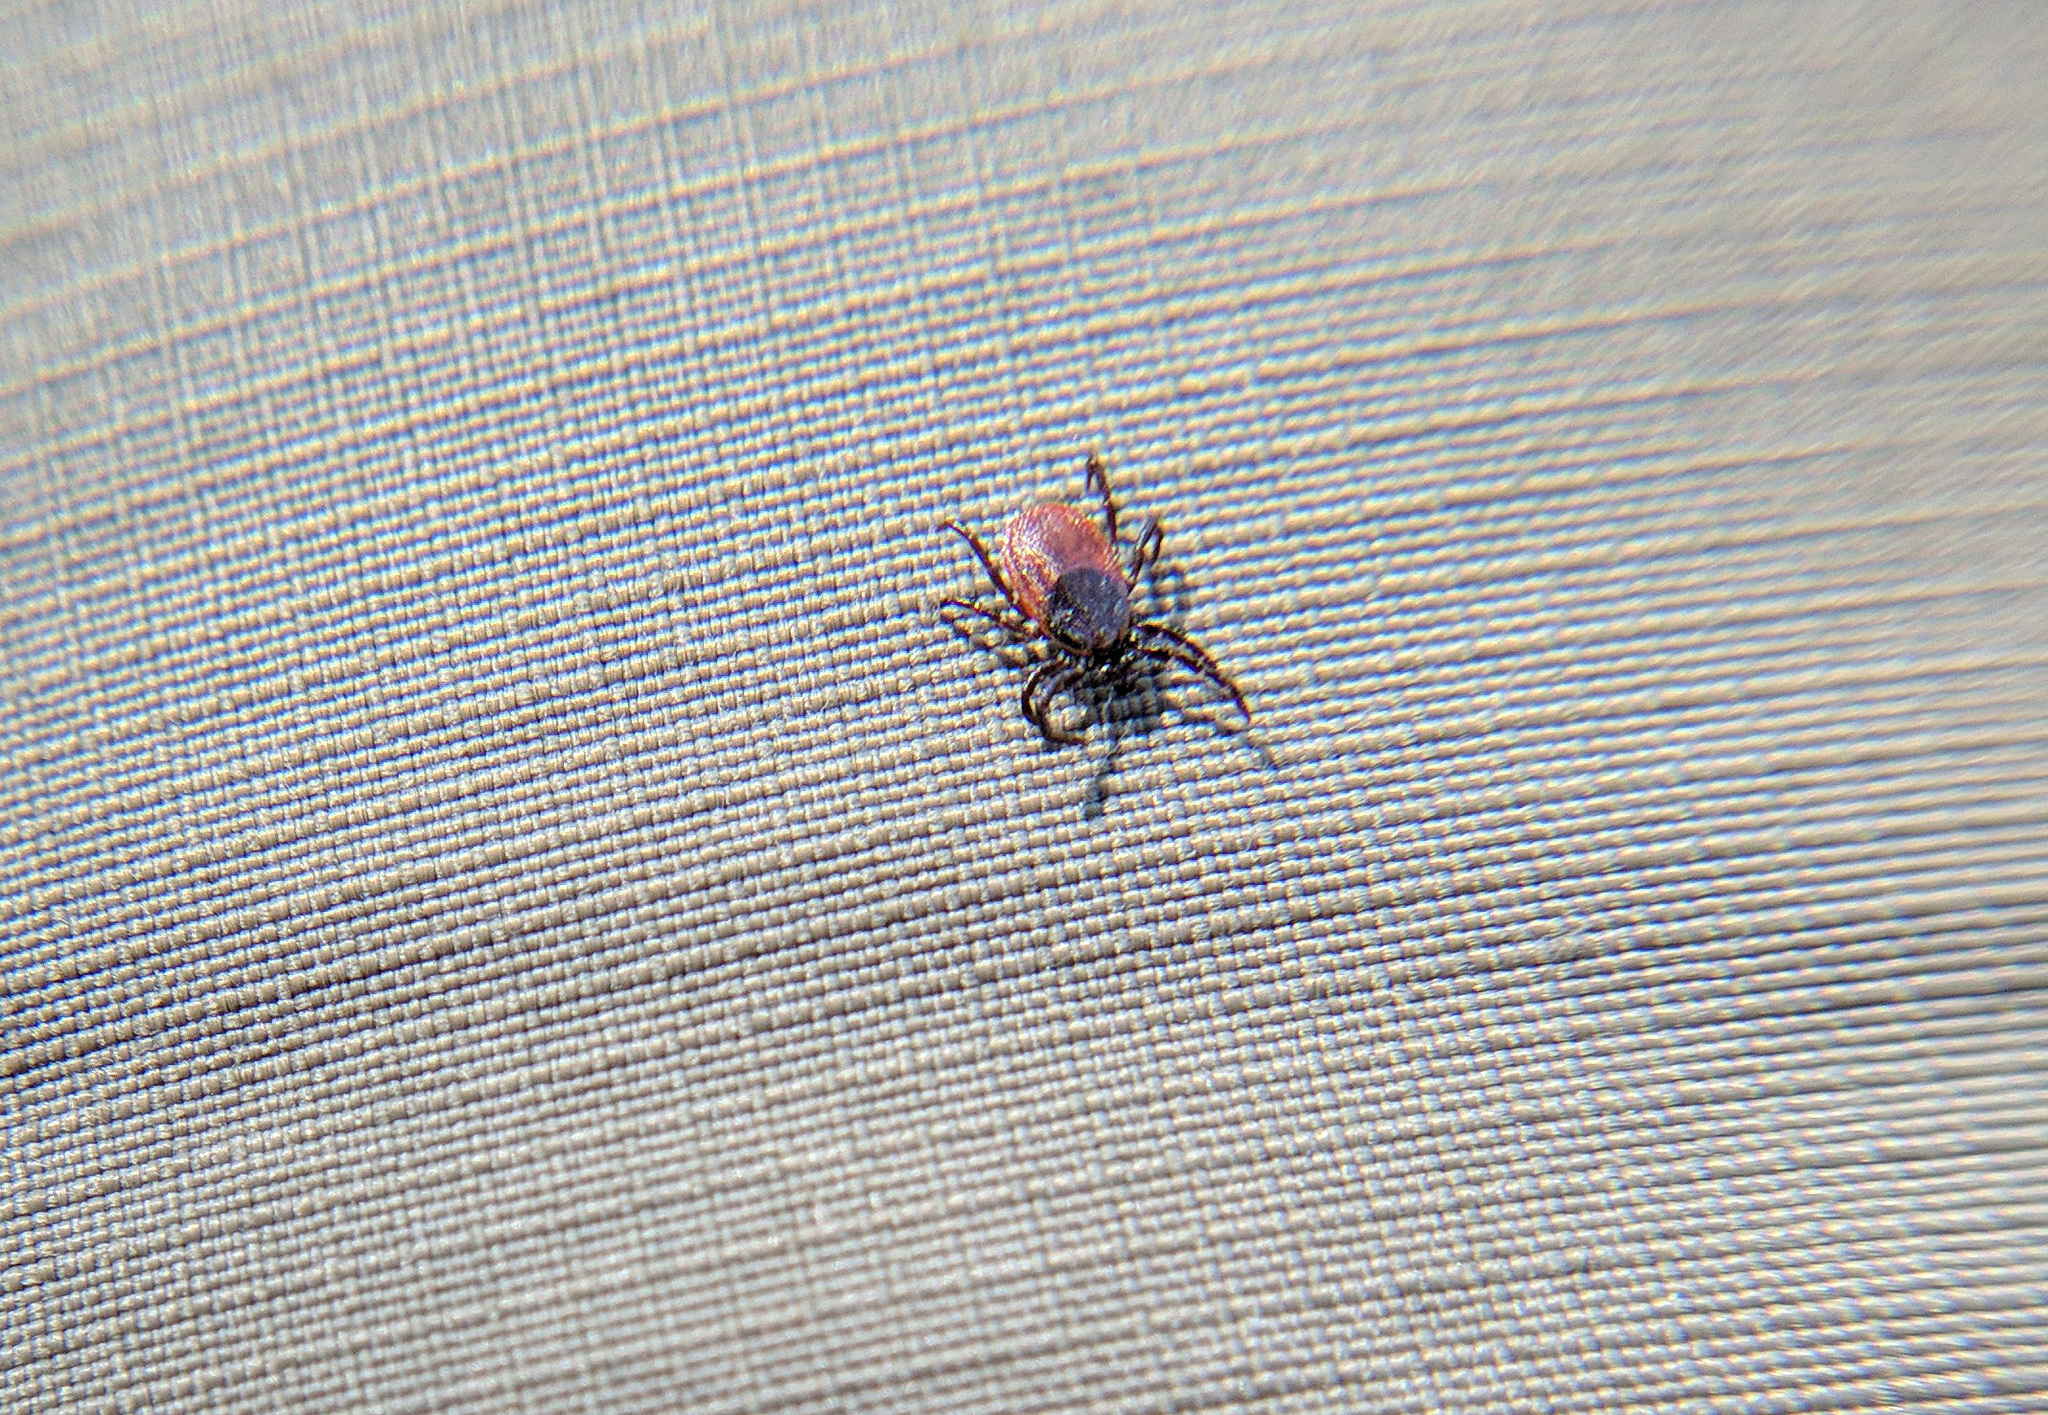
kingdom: Animalia
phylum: Arthropoda
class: Arachnida
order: Ixodida
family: Ixodidae
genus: Ixodes
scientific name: Ixodes pacificus
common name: California black-legged tick
